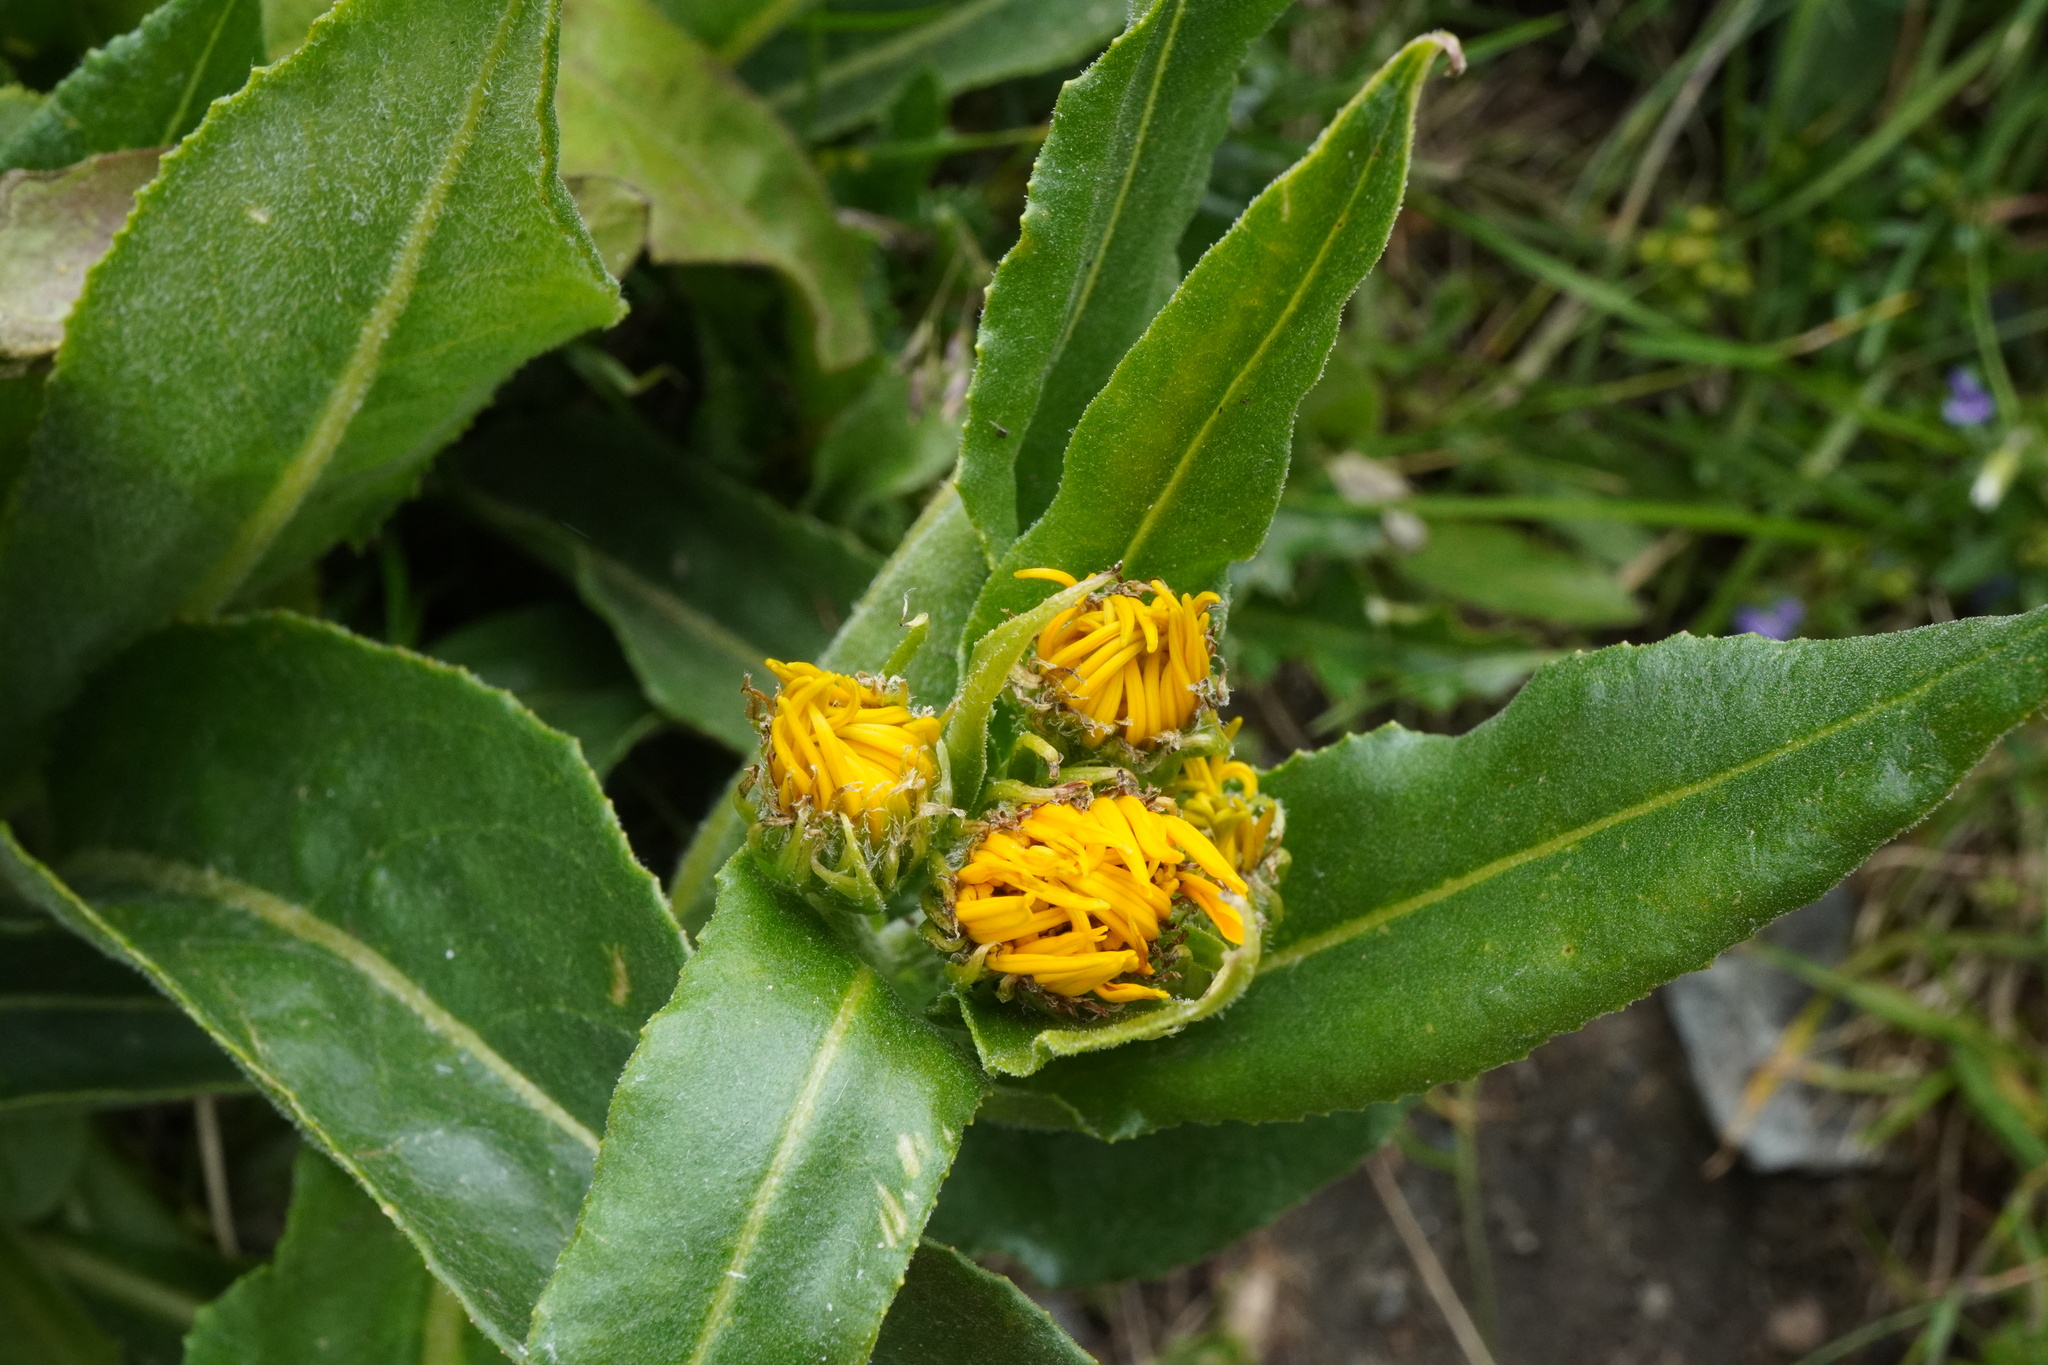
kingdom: Plantae
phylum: Tracheophyta
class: Magnoliopsida
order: Asterales
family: Asteraceae
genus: Senecio
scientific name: Senecio doronicum
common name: Chamois ragwort
